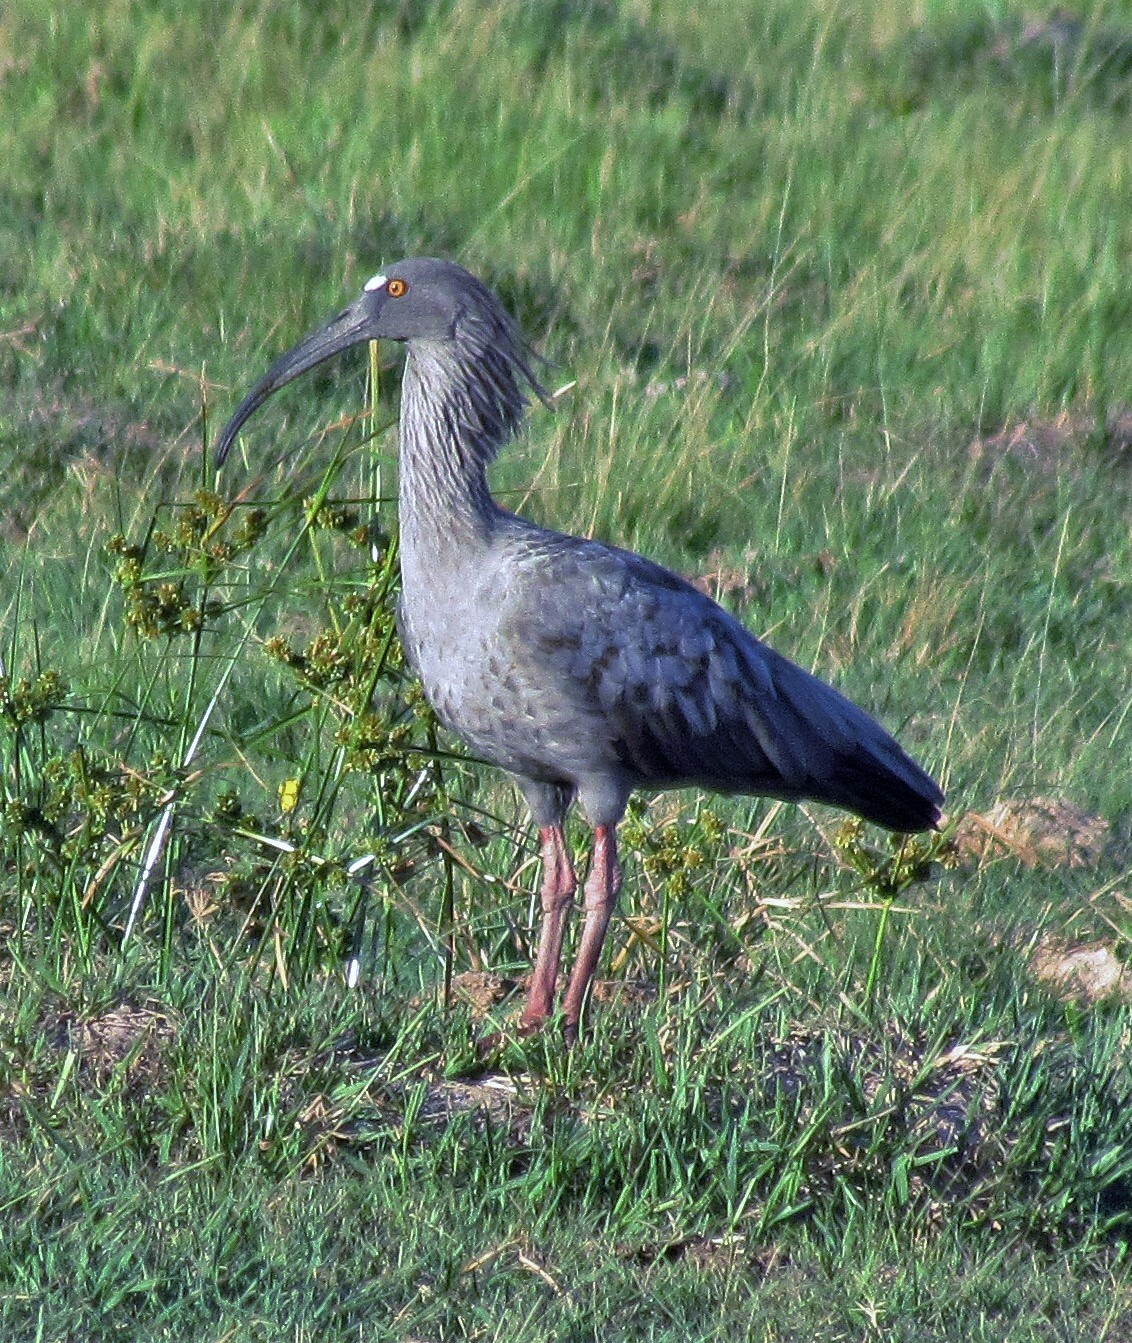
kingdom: Animalia
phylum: Chordata
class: Aves
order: Pelecaniformes
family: Threskiornithidae
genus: Theristicus
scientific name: Theristicus caerulescens
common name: Plumbeous ibis
